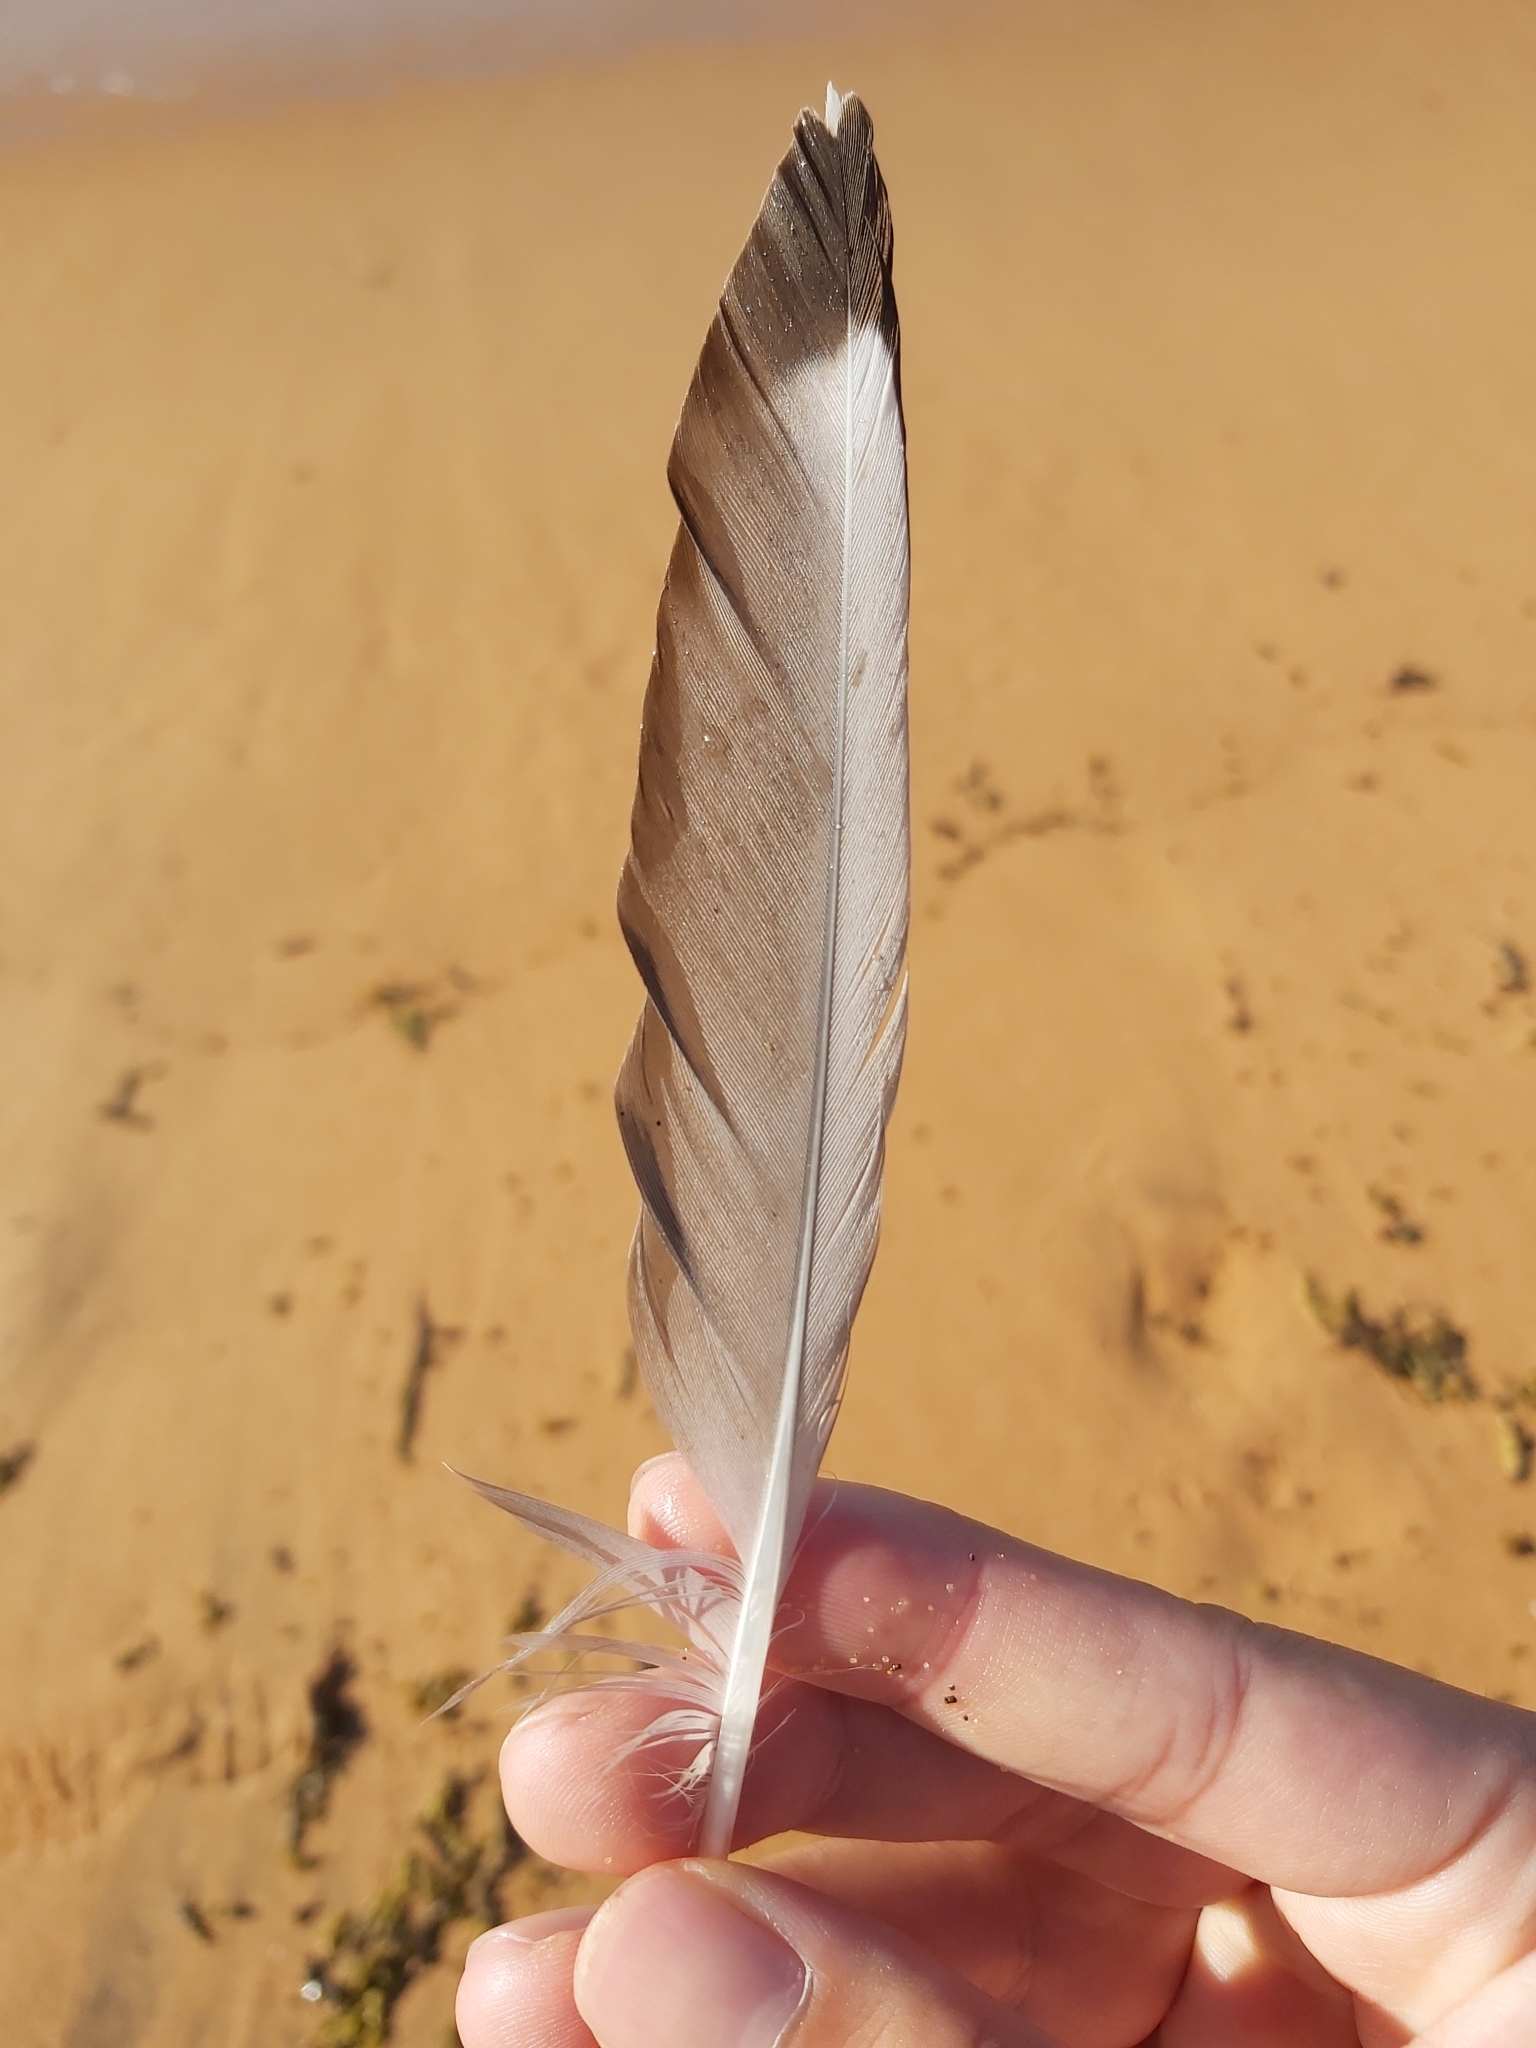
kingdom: Animalia
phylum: Chordata
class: Aves
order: Charadriiformes
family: Laridae
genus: Chroicocephalus
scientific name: Chroicocephalus novaehollandiae
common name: Silver gull
